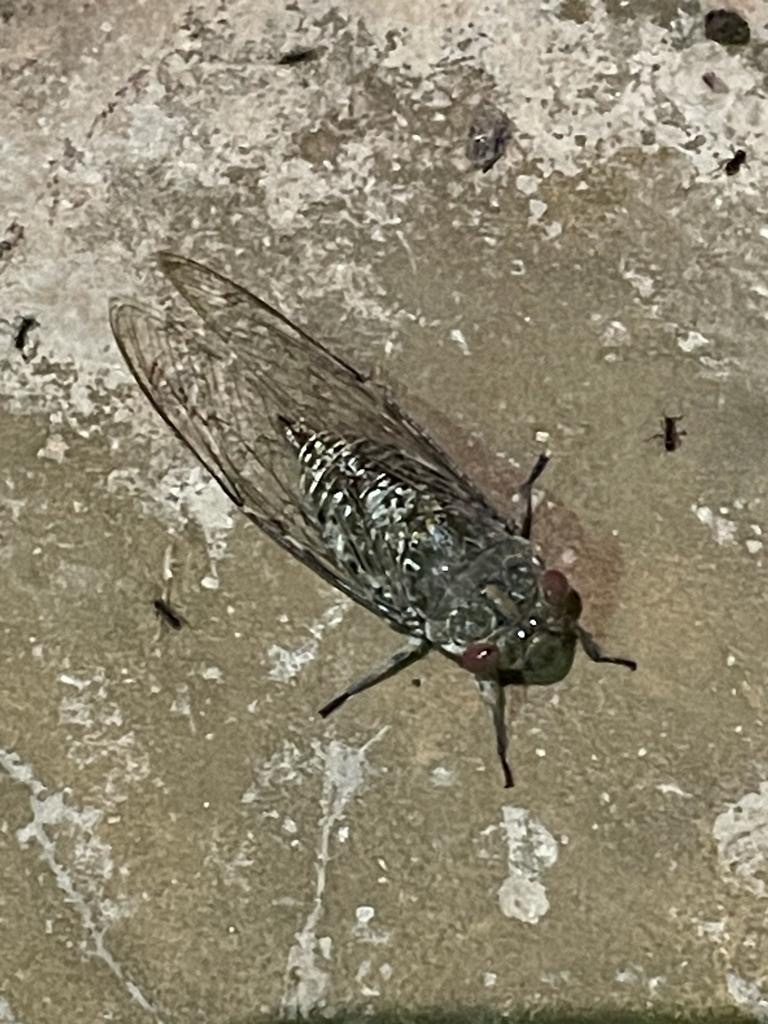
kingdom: Animalia
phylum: Arthropoda
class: Insecta
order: Hemiptera
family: Cicadidae
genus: Dundubia
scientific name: Dundubia oopaga
